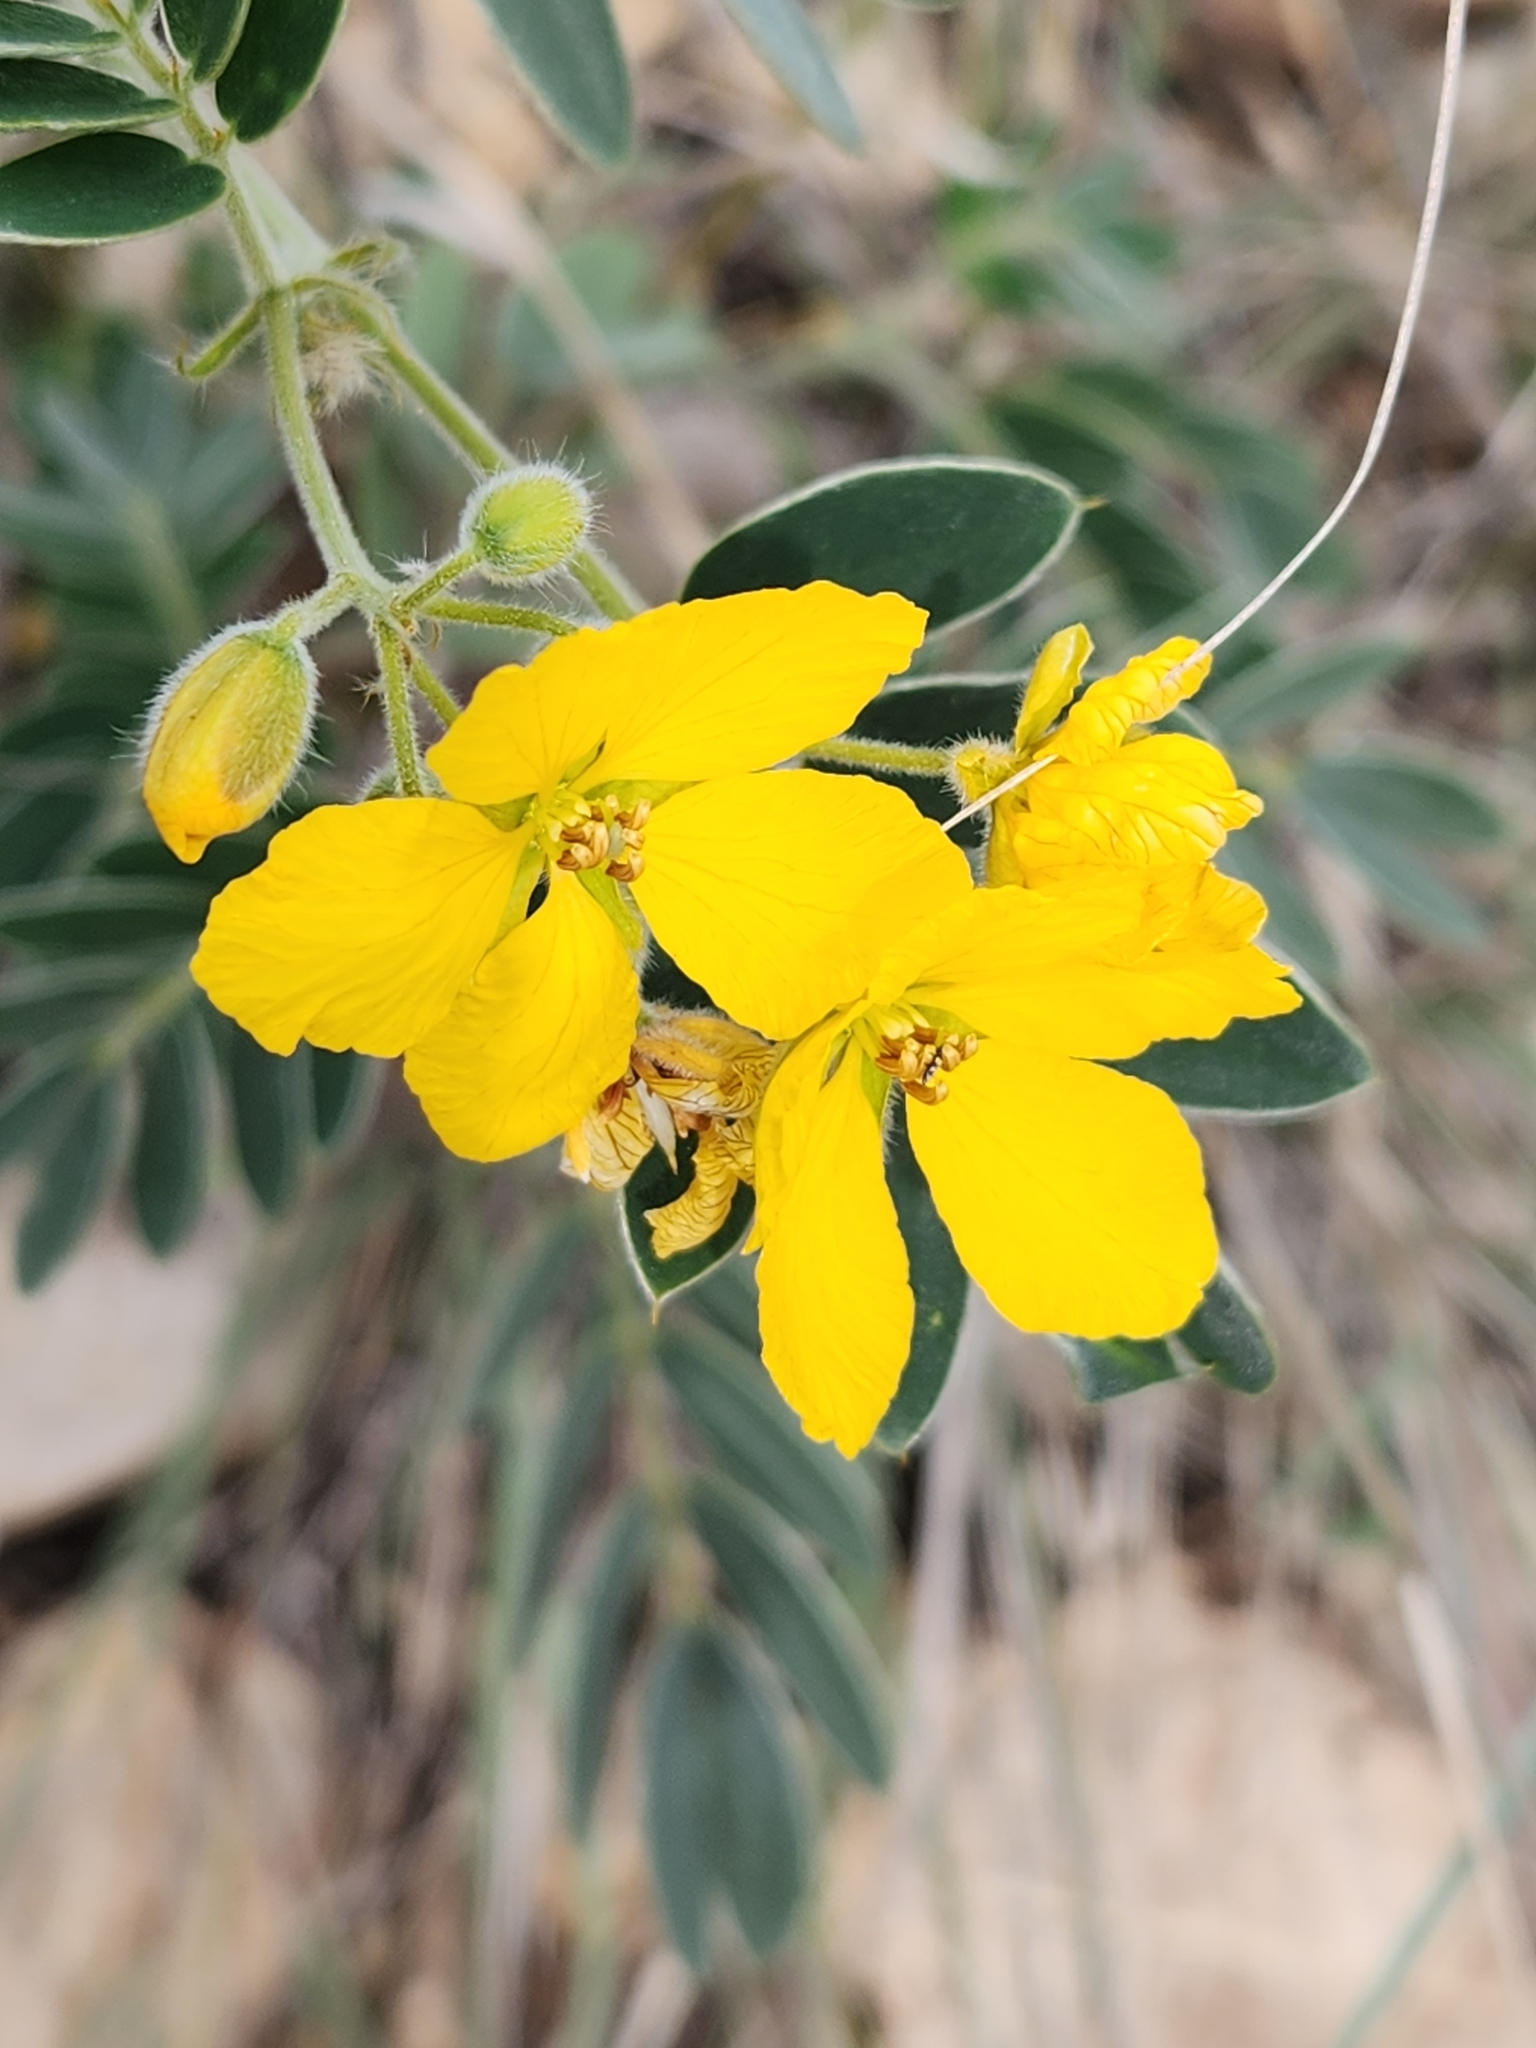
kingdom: Plantae
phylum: Tracheophyta
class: Magnoliopsida
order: Fabales
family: Fabaceae
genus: Senna
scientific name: Senna lindheimeriana
